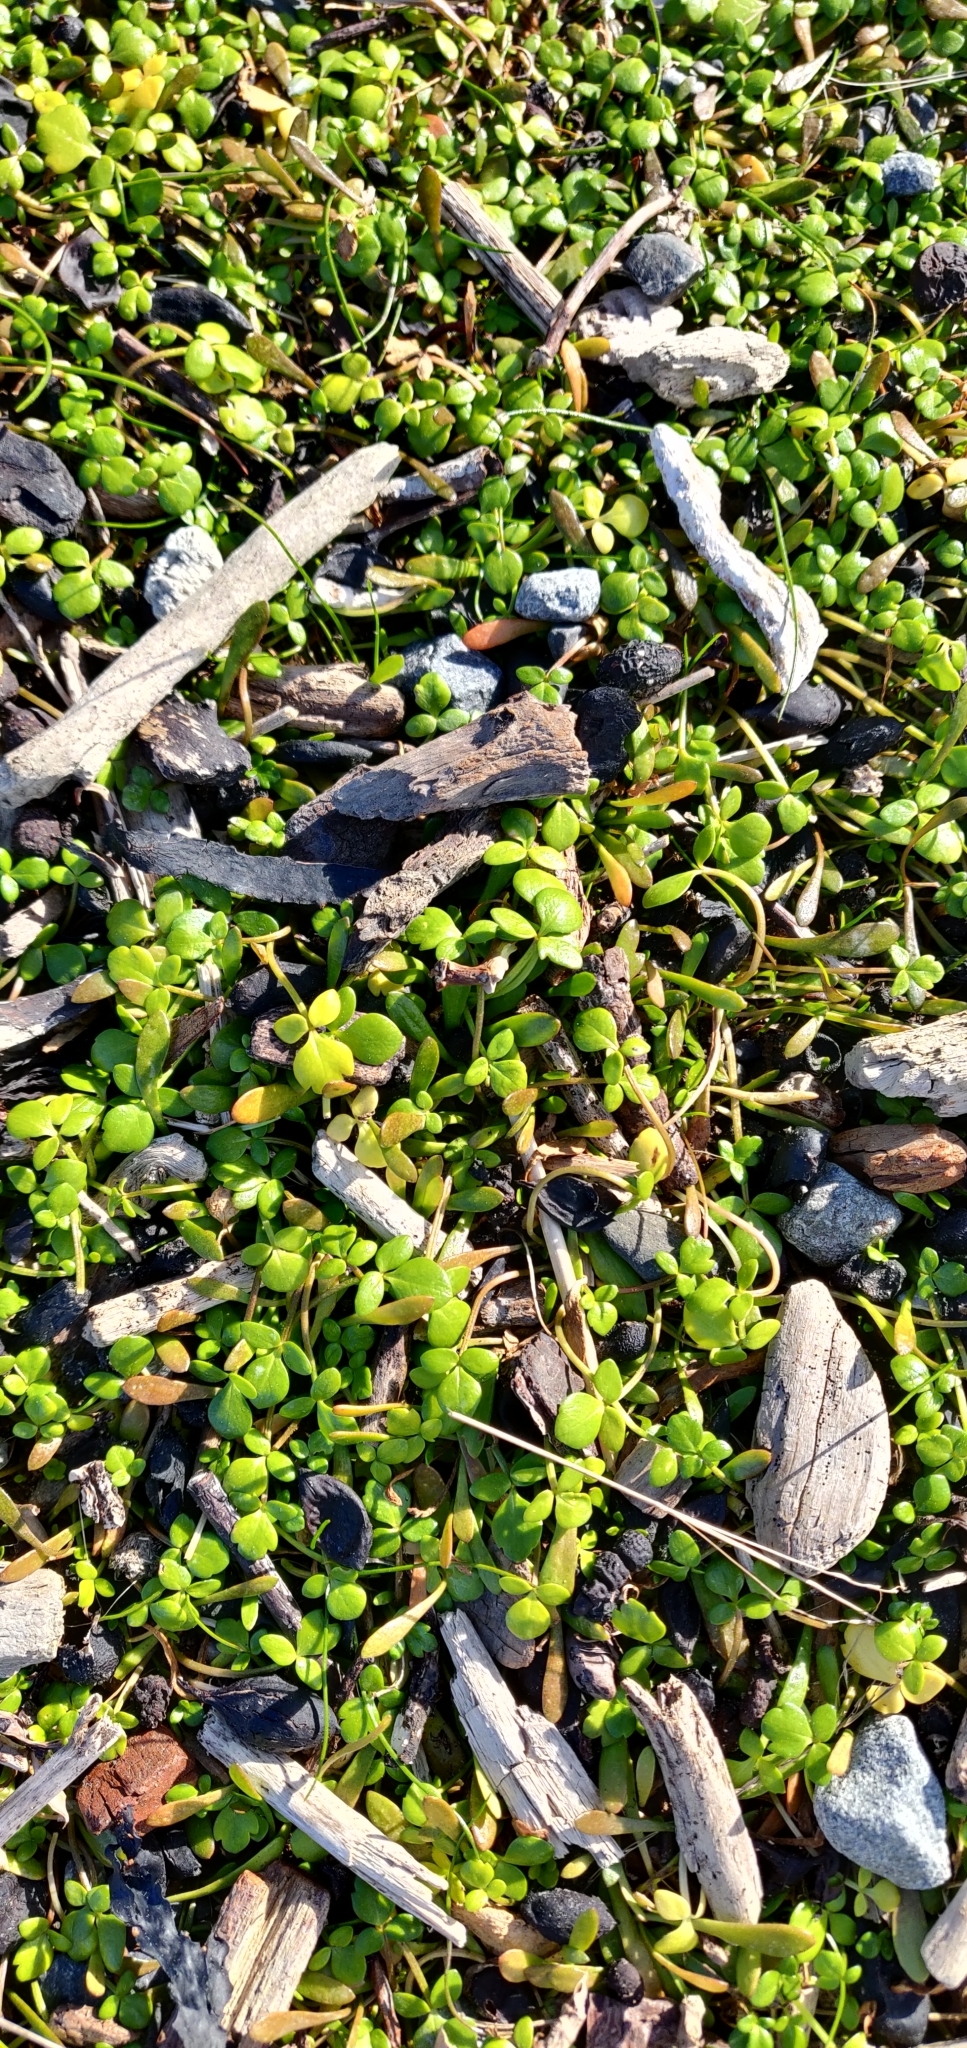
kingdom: Plantae
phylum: Tracheophyta
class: Magnoliopsida
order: Ranunculales
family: Ranunculaceae
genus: Ranunculus
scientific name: Ranunculus acaulis
